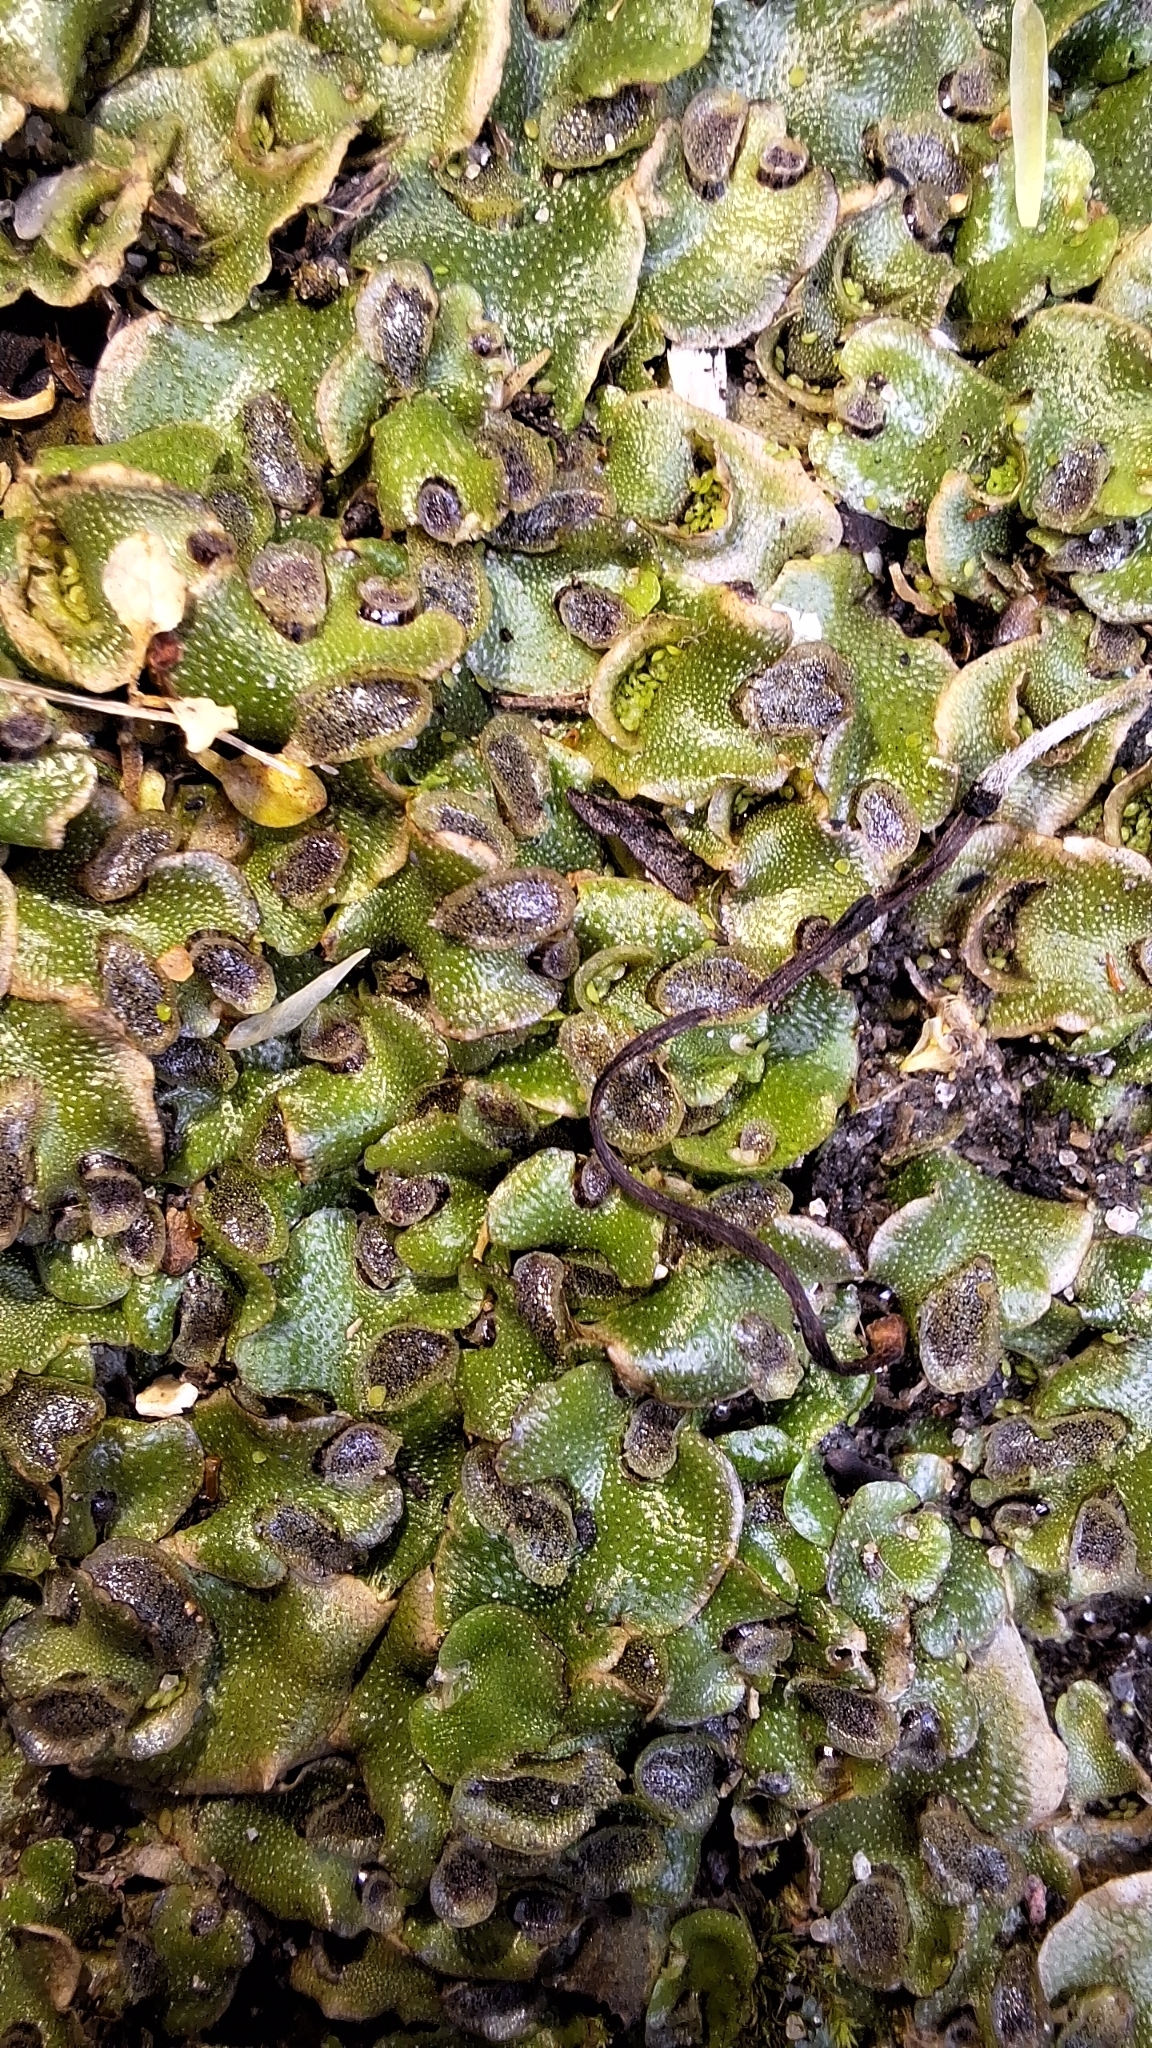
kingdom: Plantae
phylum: Marchantiophyta
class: Marchantiopsida
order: Lunulariales
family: Lunulariaceae
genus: Lunularia
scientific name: Lunularia cruciata
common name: Crescent-cup liverwort
